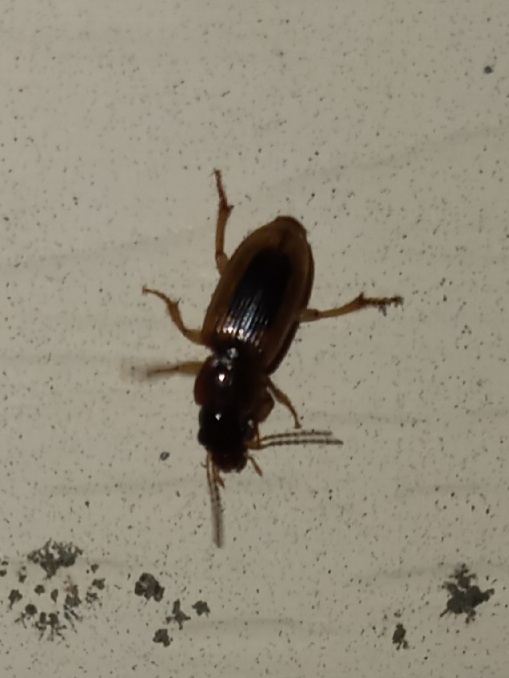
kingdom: Animalia
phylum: Arthropoda
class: Insecta
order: Coleoptera
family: Carabidae
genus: Stenolophus
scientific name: Stenolophus lecontei
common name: Leconte's seedcorn beetle
